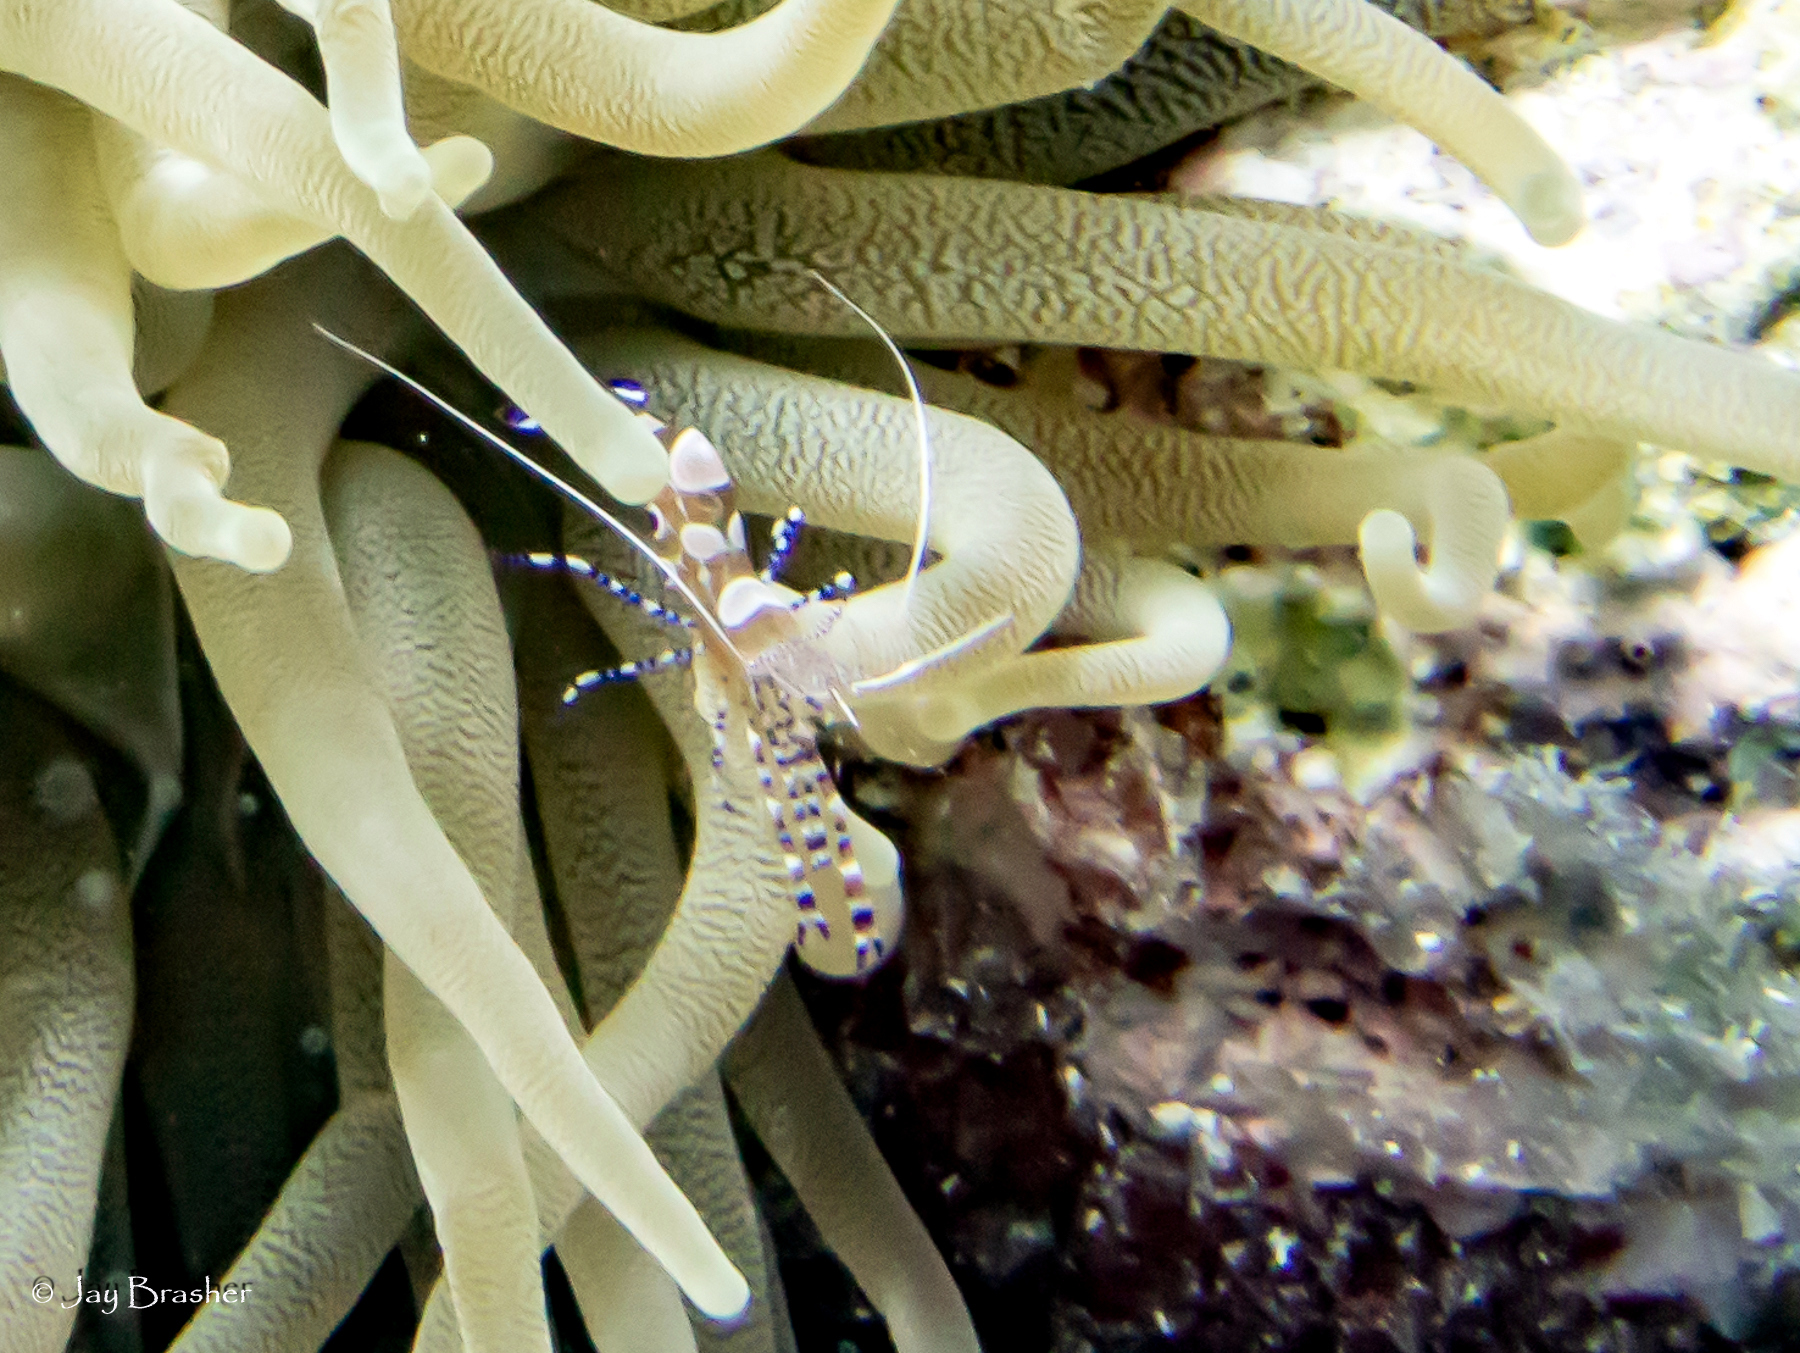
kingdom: Animalia
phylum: Arthropoda
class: Malacostraca
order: Decapoda
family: Palaemonidae
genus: Periclimenes
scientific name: Periclimenes yucatanicus
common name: Spotted cleaning shrimp
